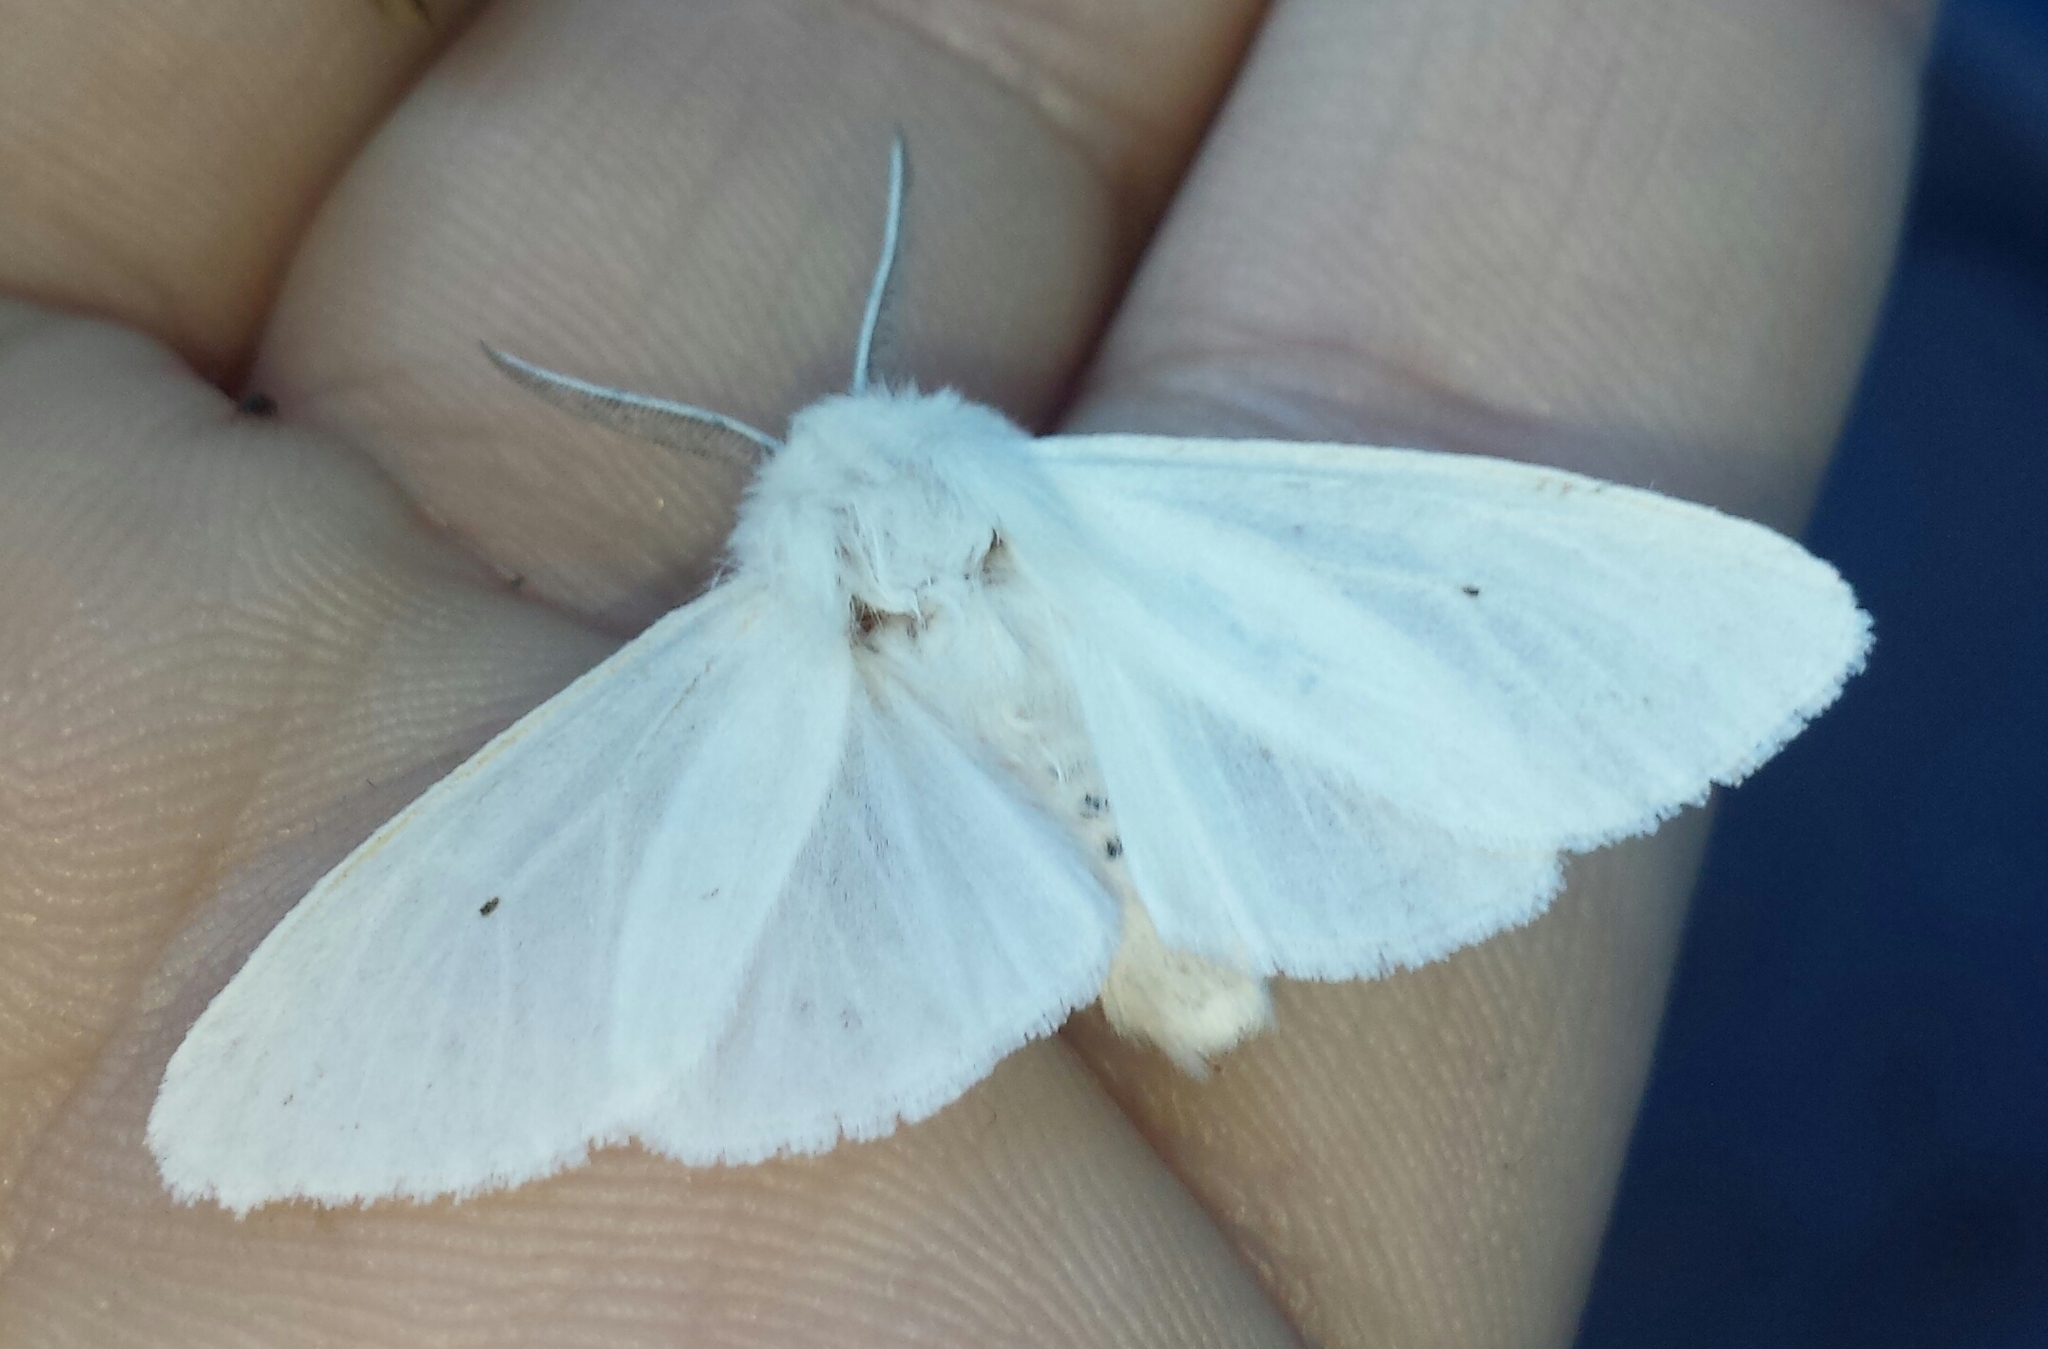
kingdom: Animalia
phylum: Arthropoda
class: Insecta
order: Lepidoptera
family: Erebidae
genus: Spilosoma
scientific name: Spilosoma virginica
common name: Virginia tiger moth
